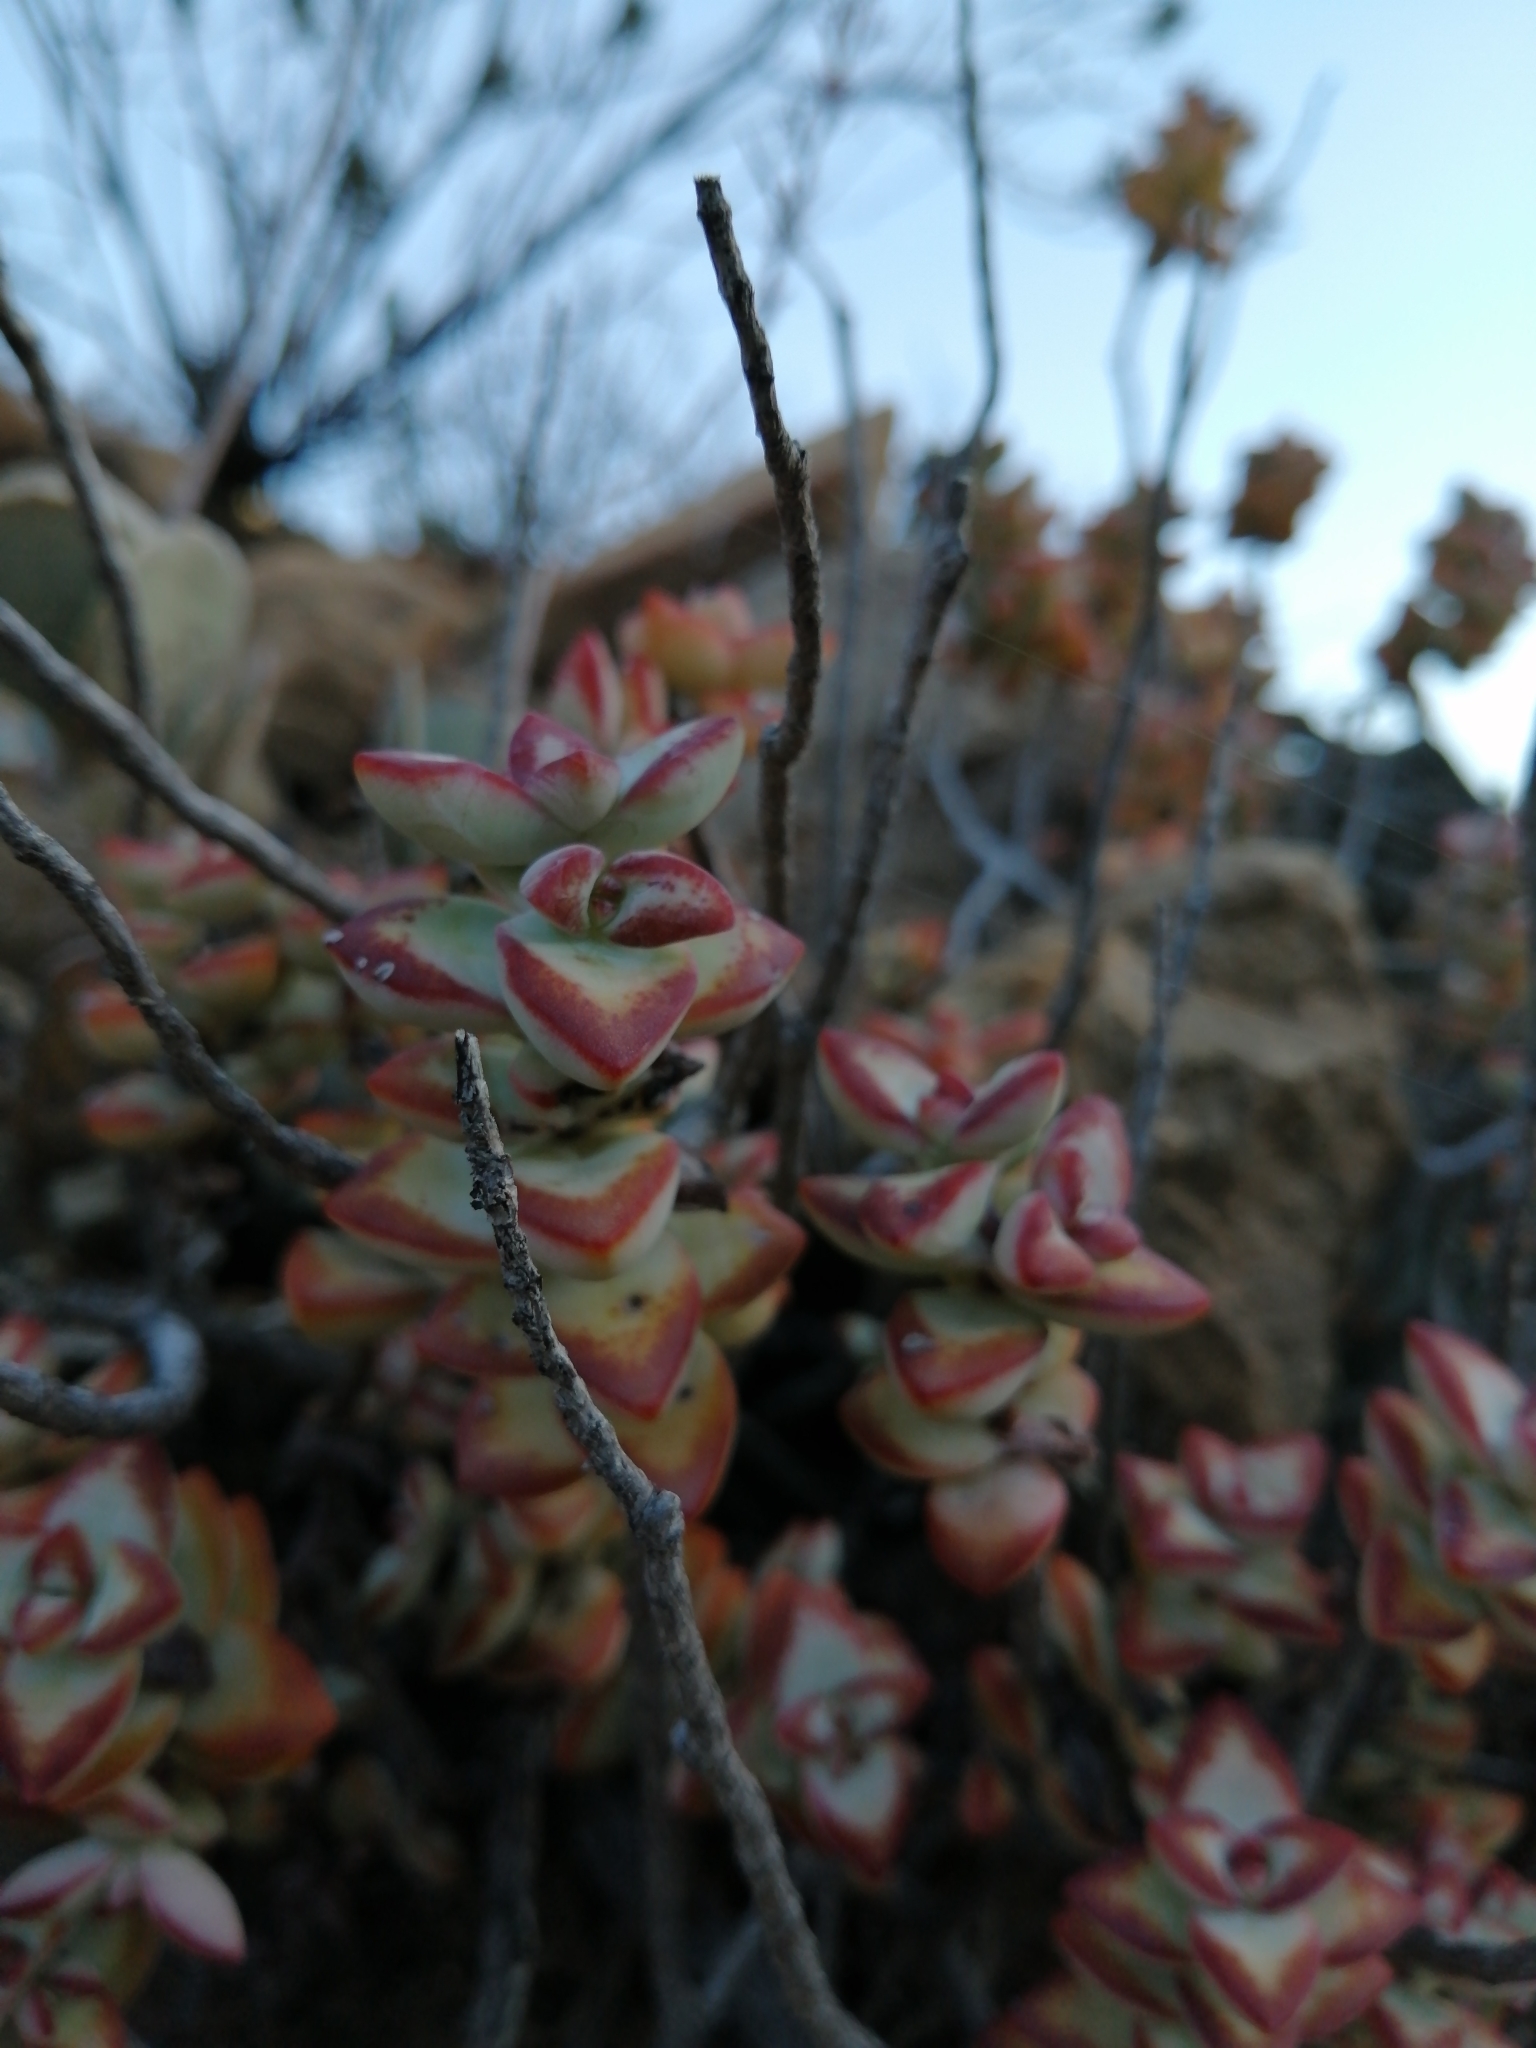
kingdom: Plantae
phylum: Tracheophyta
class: Magnoliopsida
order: Saxifragales
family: Crassulaceae
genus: Crassula
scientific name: Crassula rupestris
